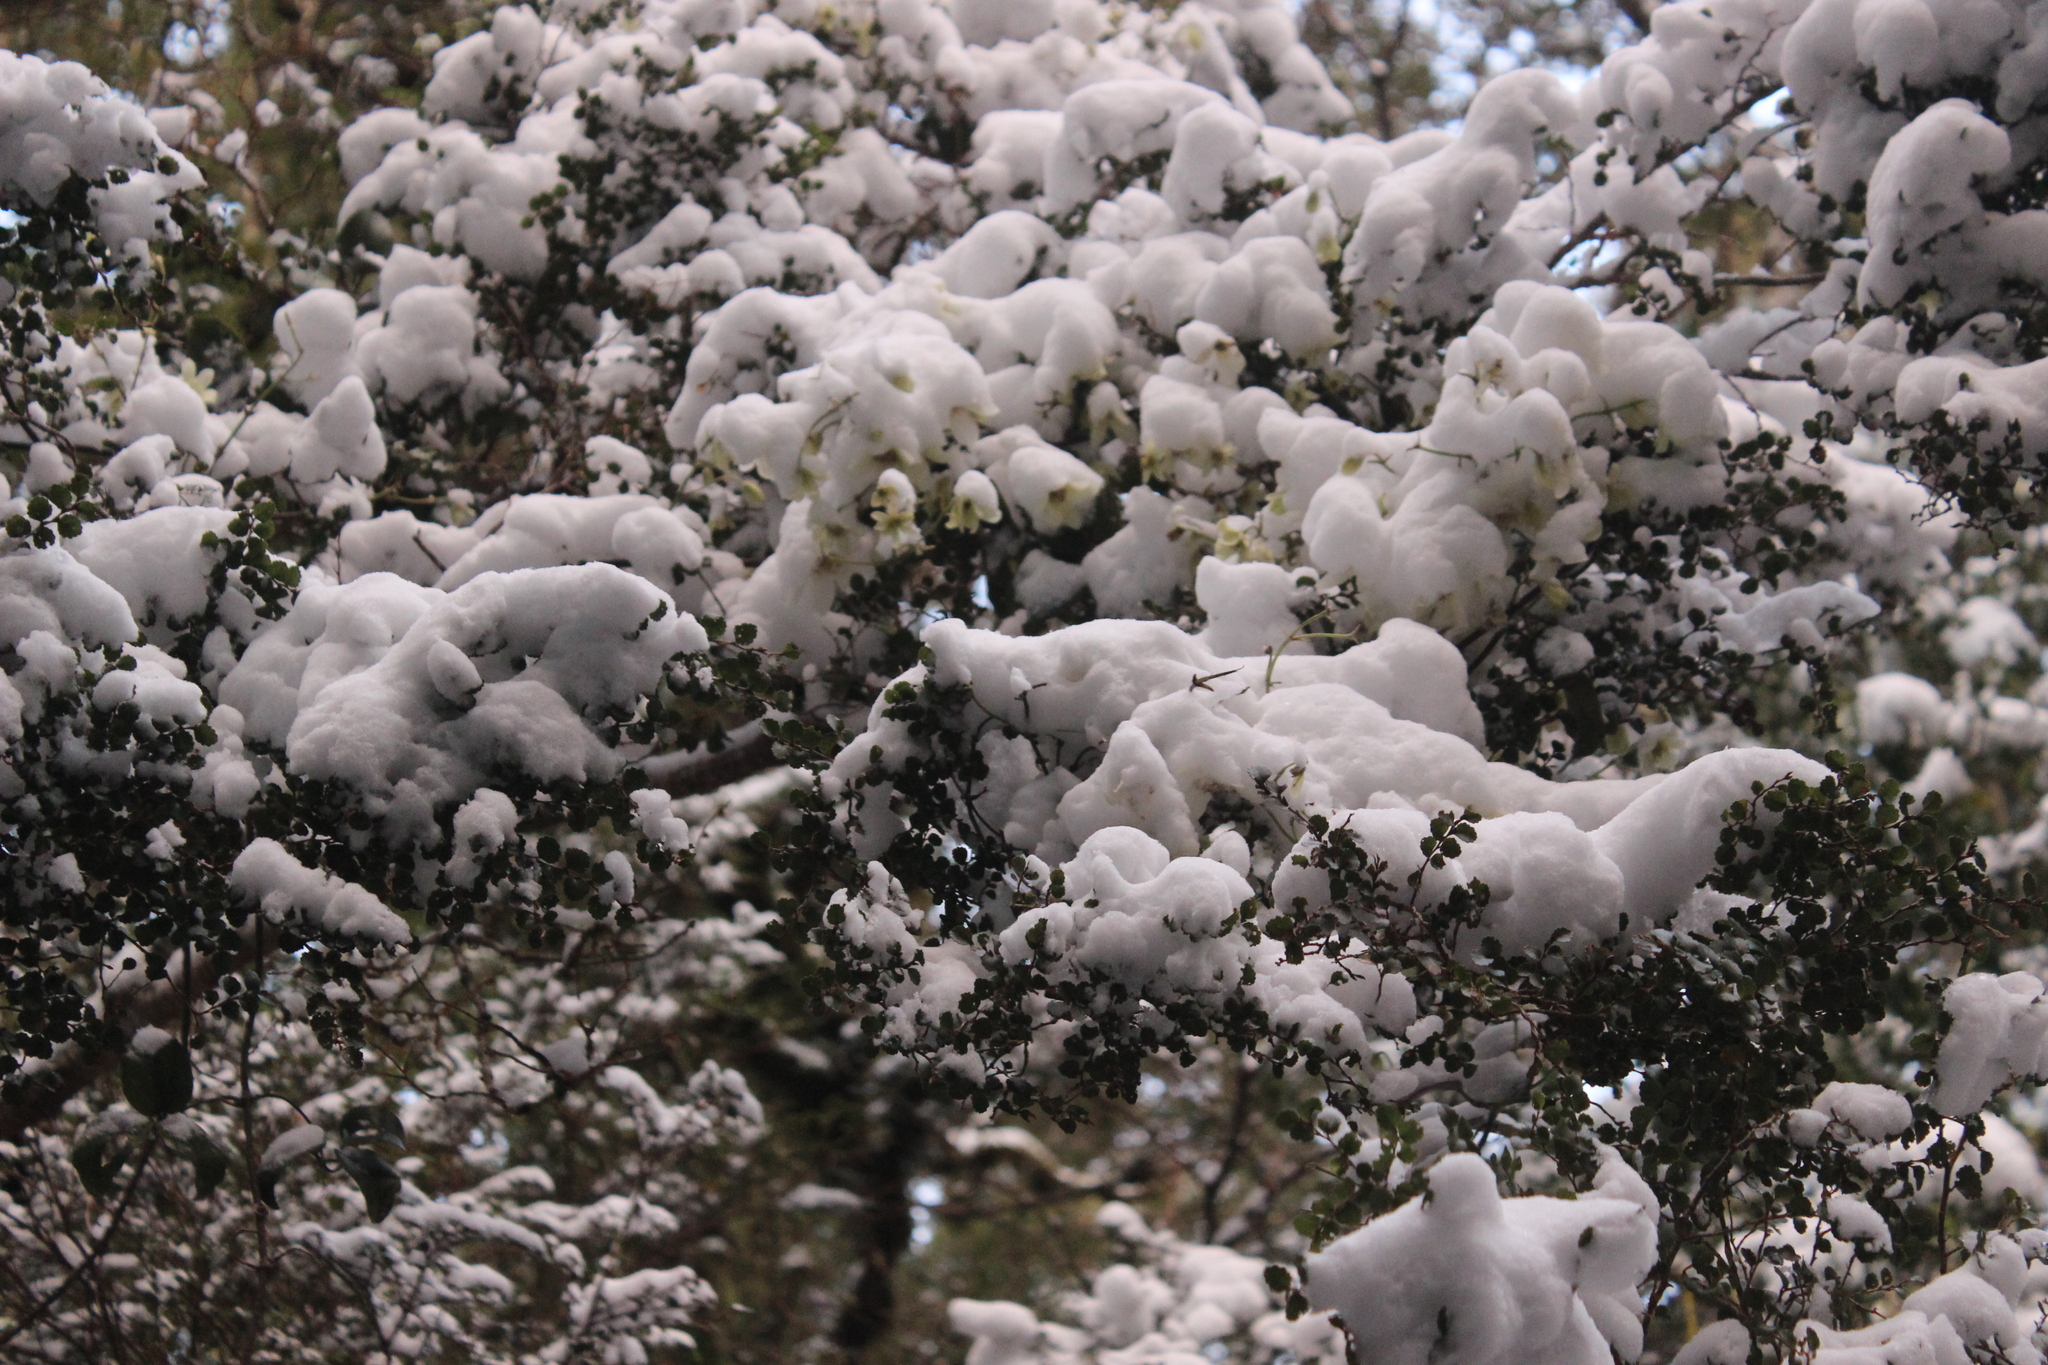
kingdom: Plantae
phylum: Tracheophyta
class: Magnoliopsida
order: Fagales
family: Nothofagaceae
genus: Nothofagus
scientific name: Nothofagus menziesii
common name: Silver beech
